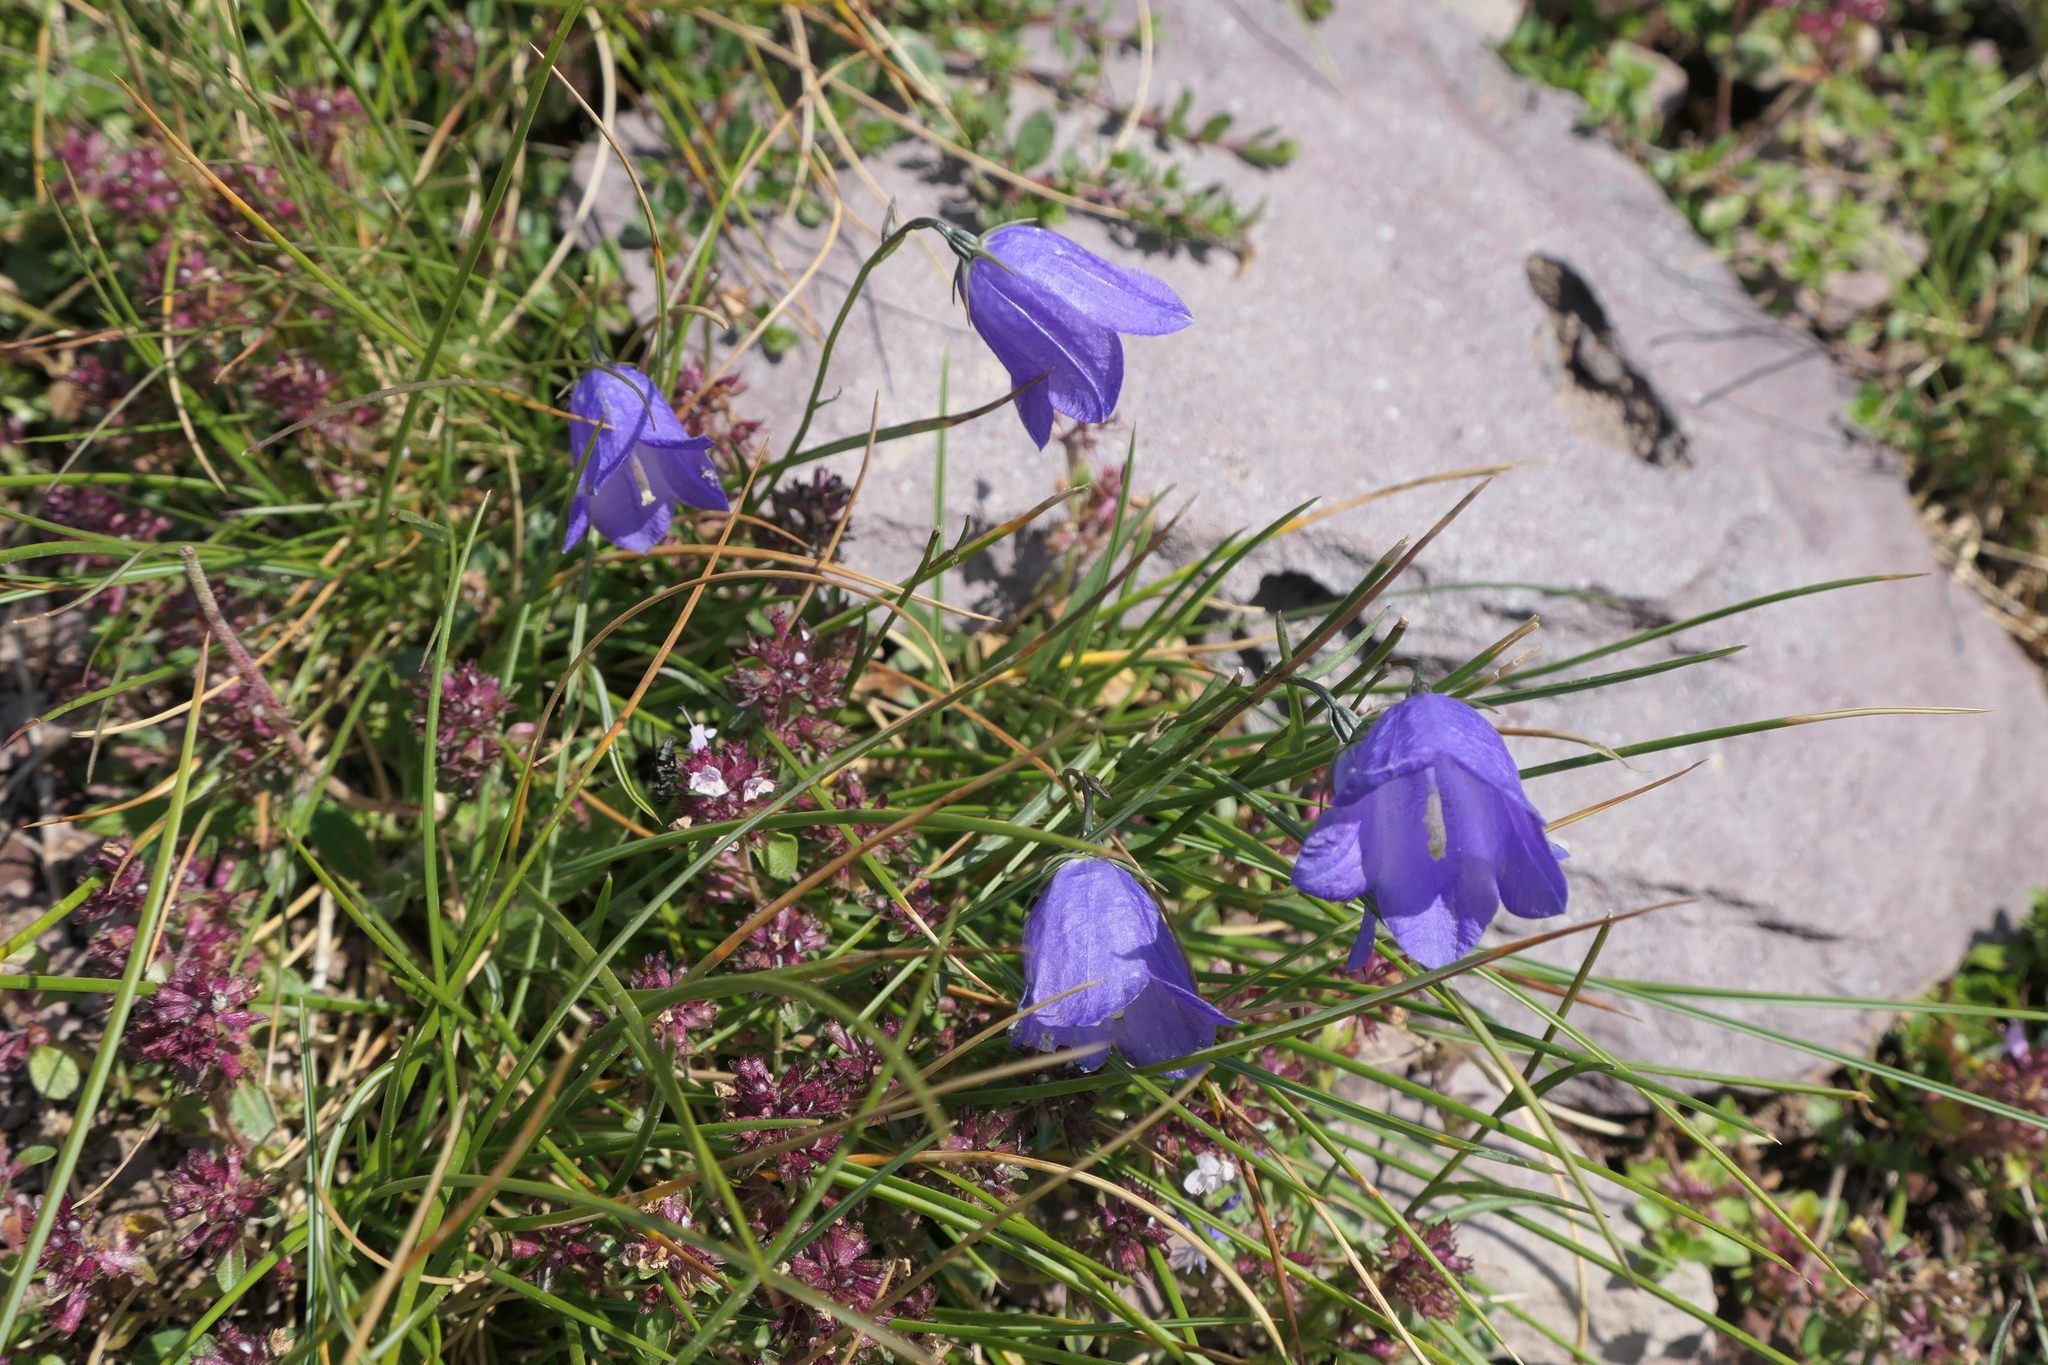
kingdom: Plantae
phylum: Tracheophyta
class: Magnoliopsida
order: Asterales
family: Campanulaceae
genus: Campanula
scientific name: Campanula scheuchzeri
